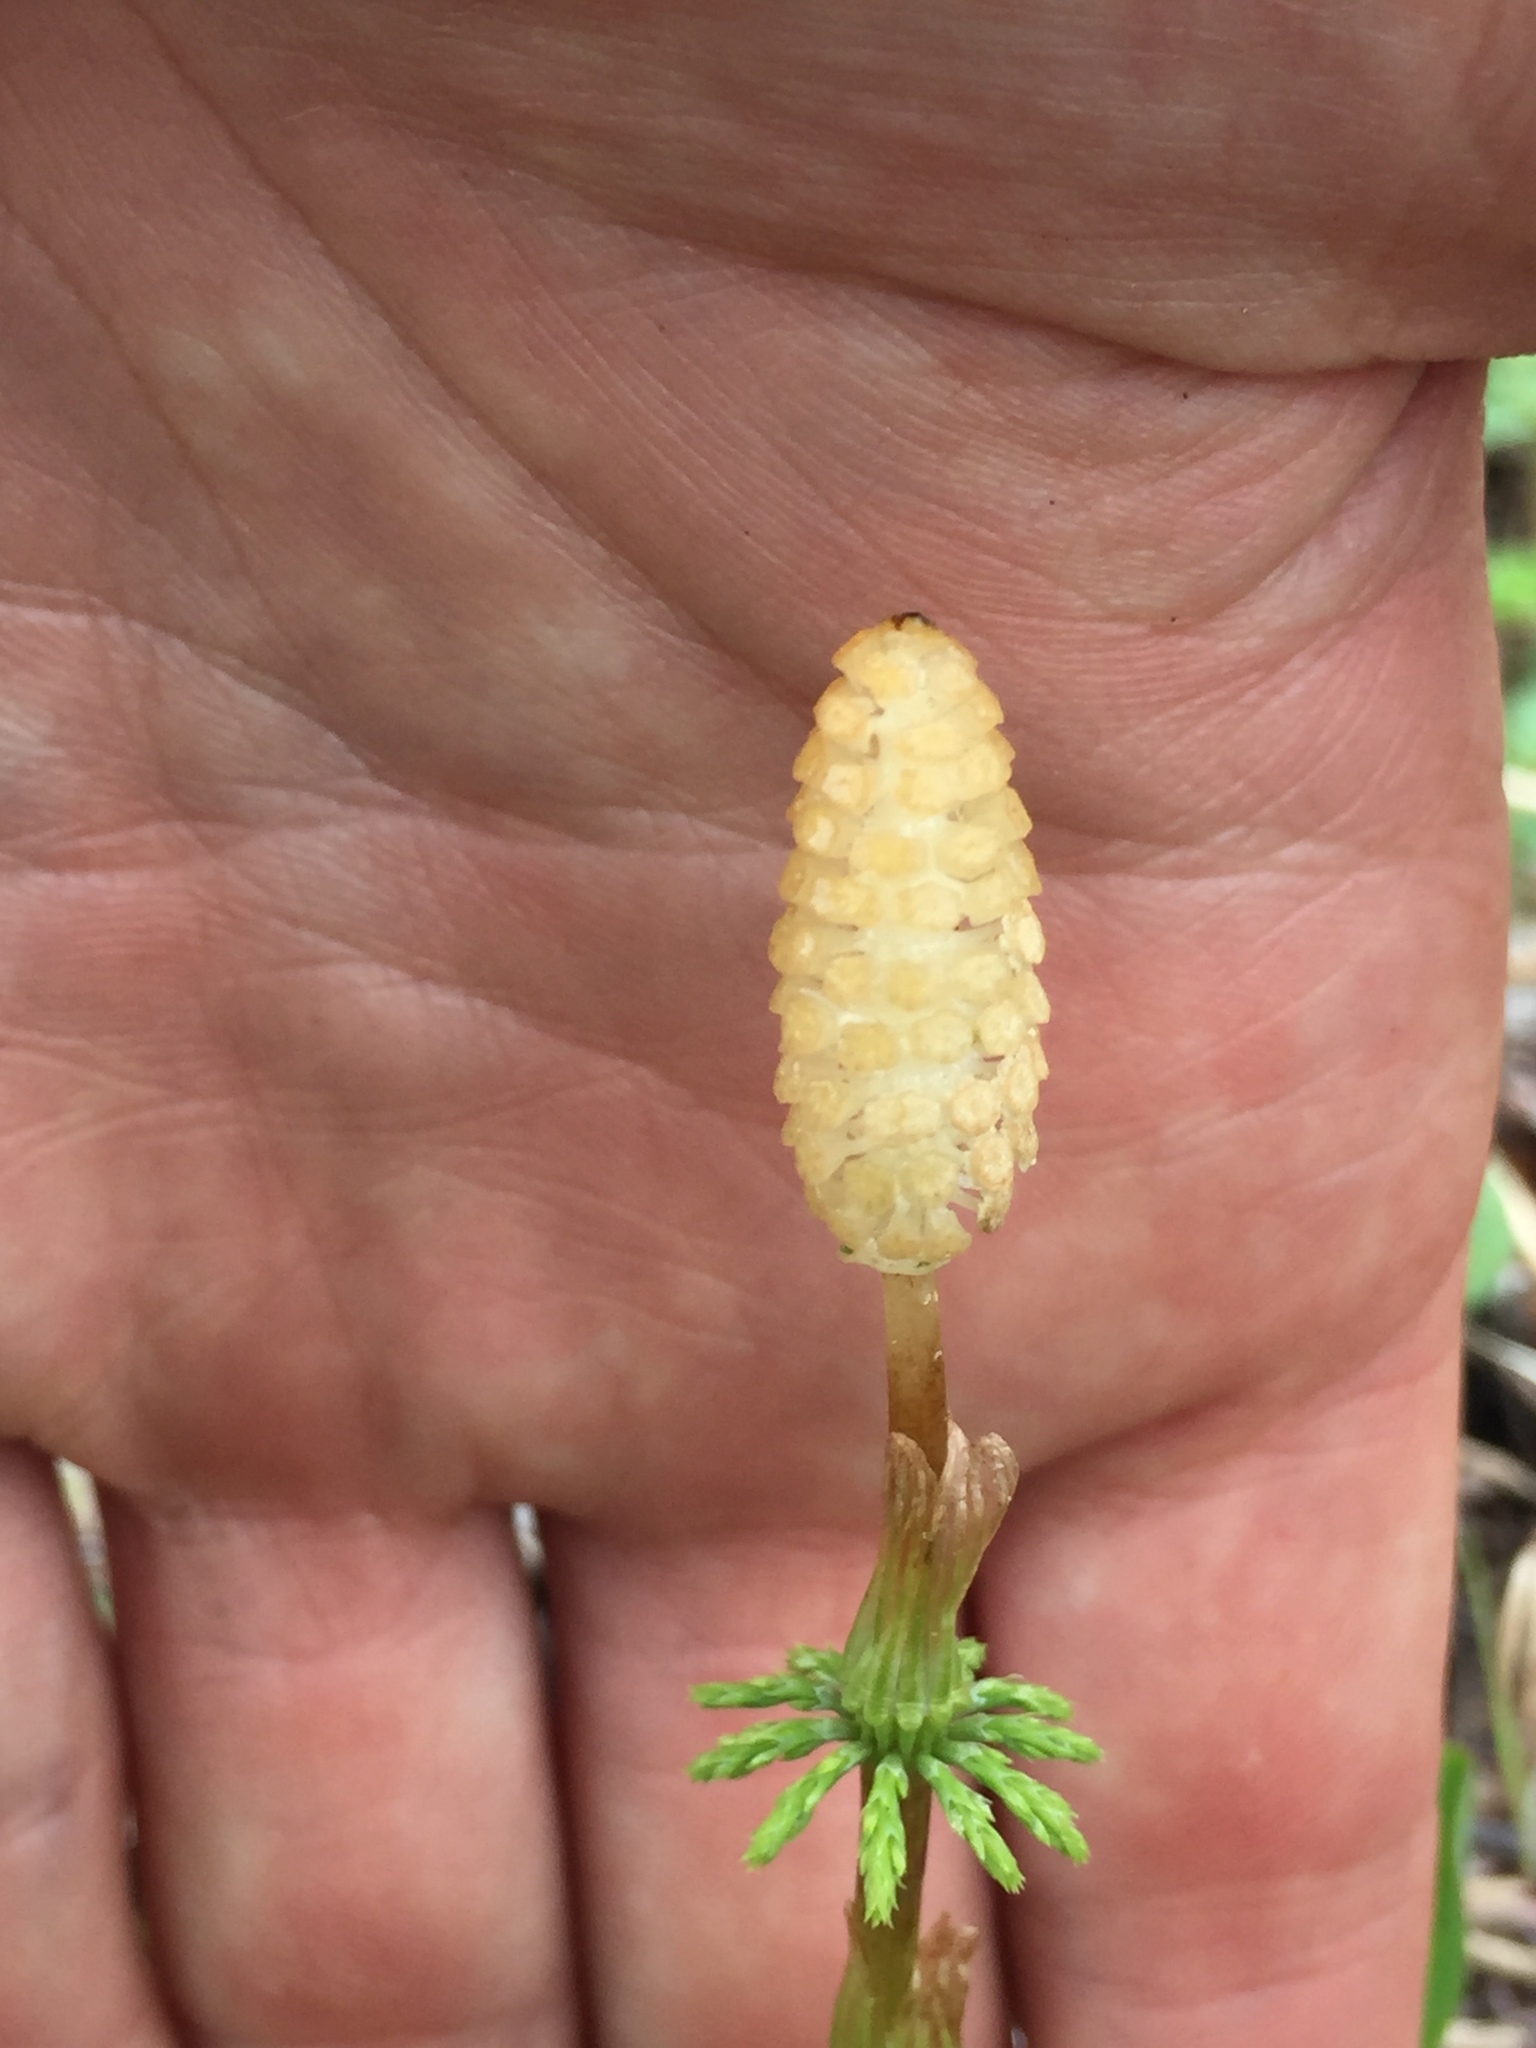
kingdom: Plantae
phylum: Tracheophyta
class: Polypodiopsida
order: Equisetales
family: Equisetaceae
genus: Equisetum
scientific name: Equisetum sylvaticum
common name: Wood horsetail
